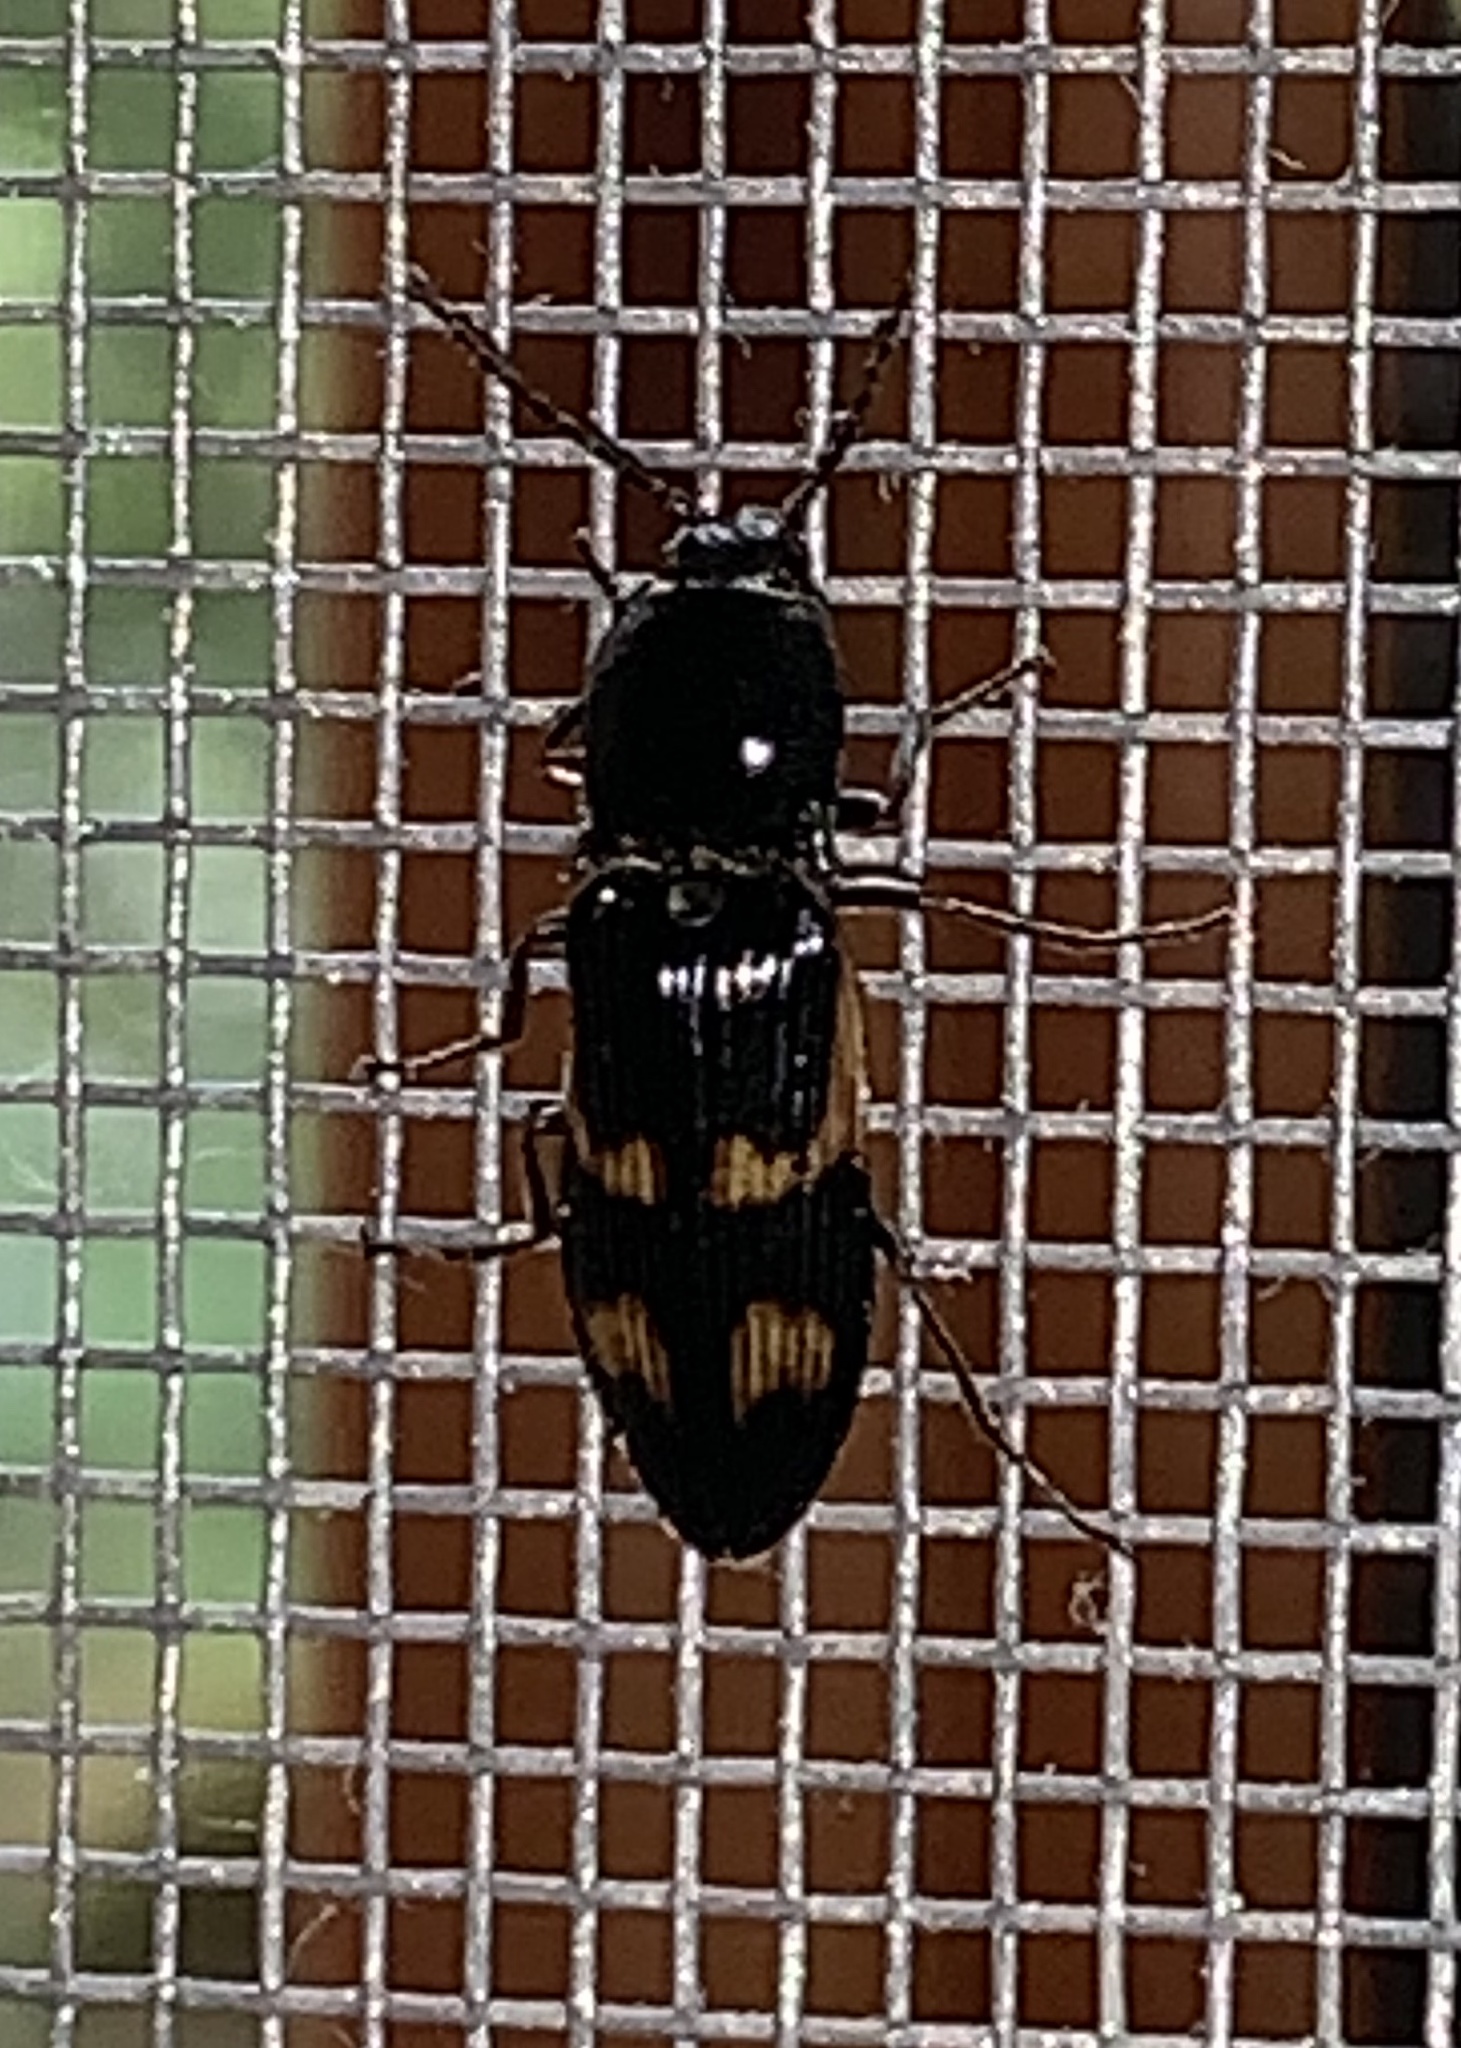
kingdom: Animalia
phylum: Arthropoda
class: Insecta
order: Coleoptera
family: Elateridae
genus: Selatosomus
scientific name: Selatosomus suckleyi
